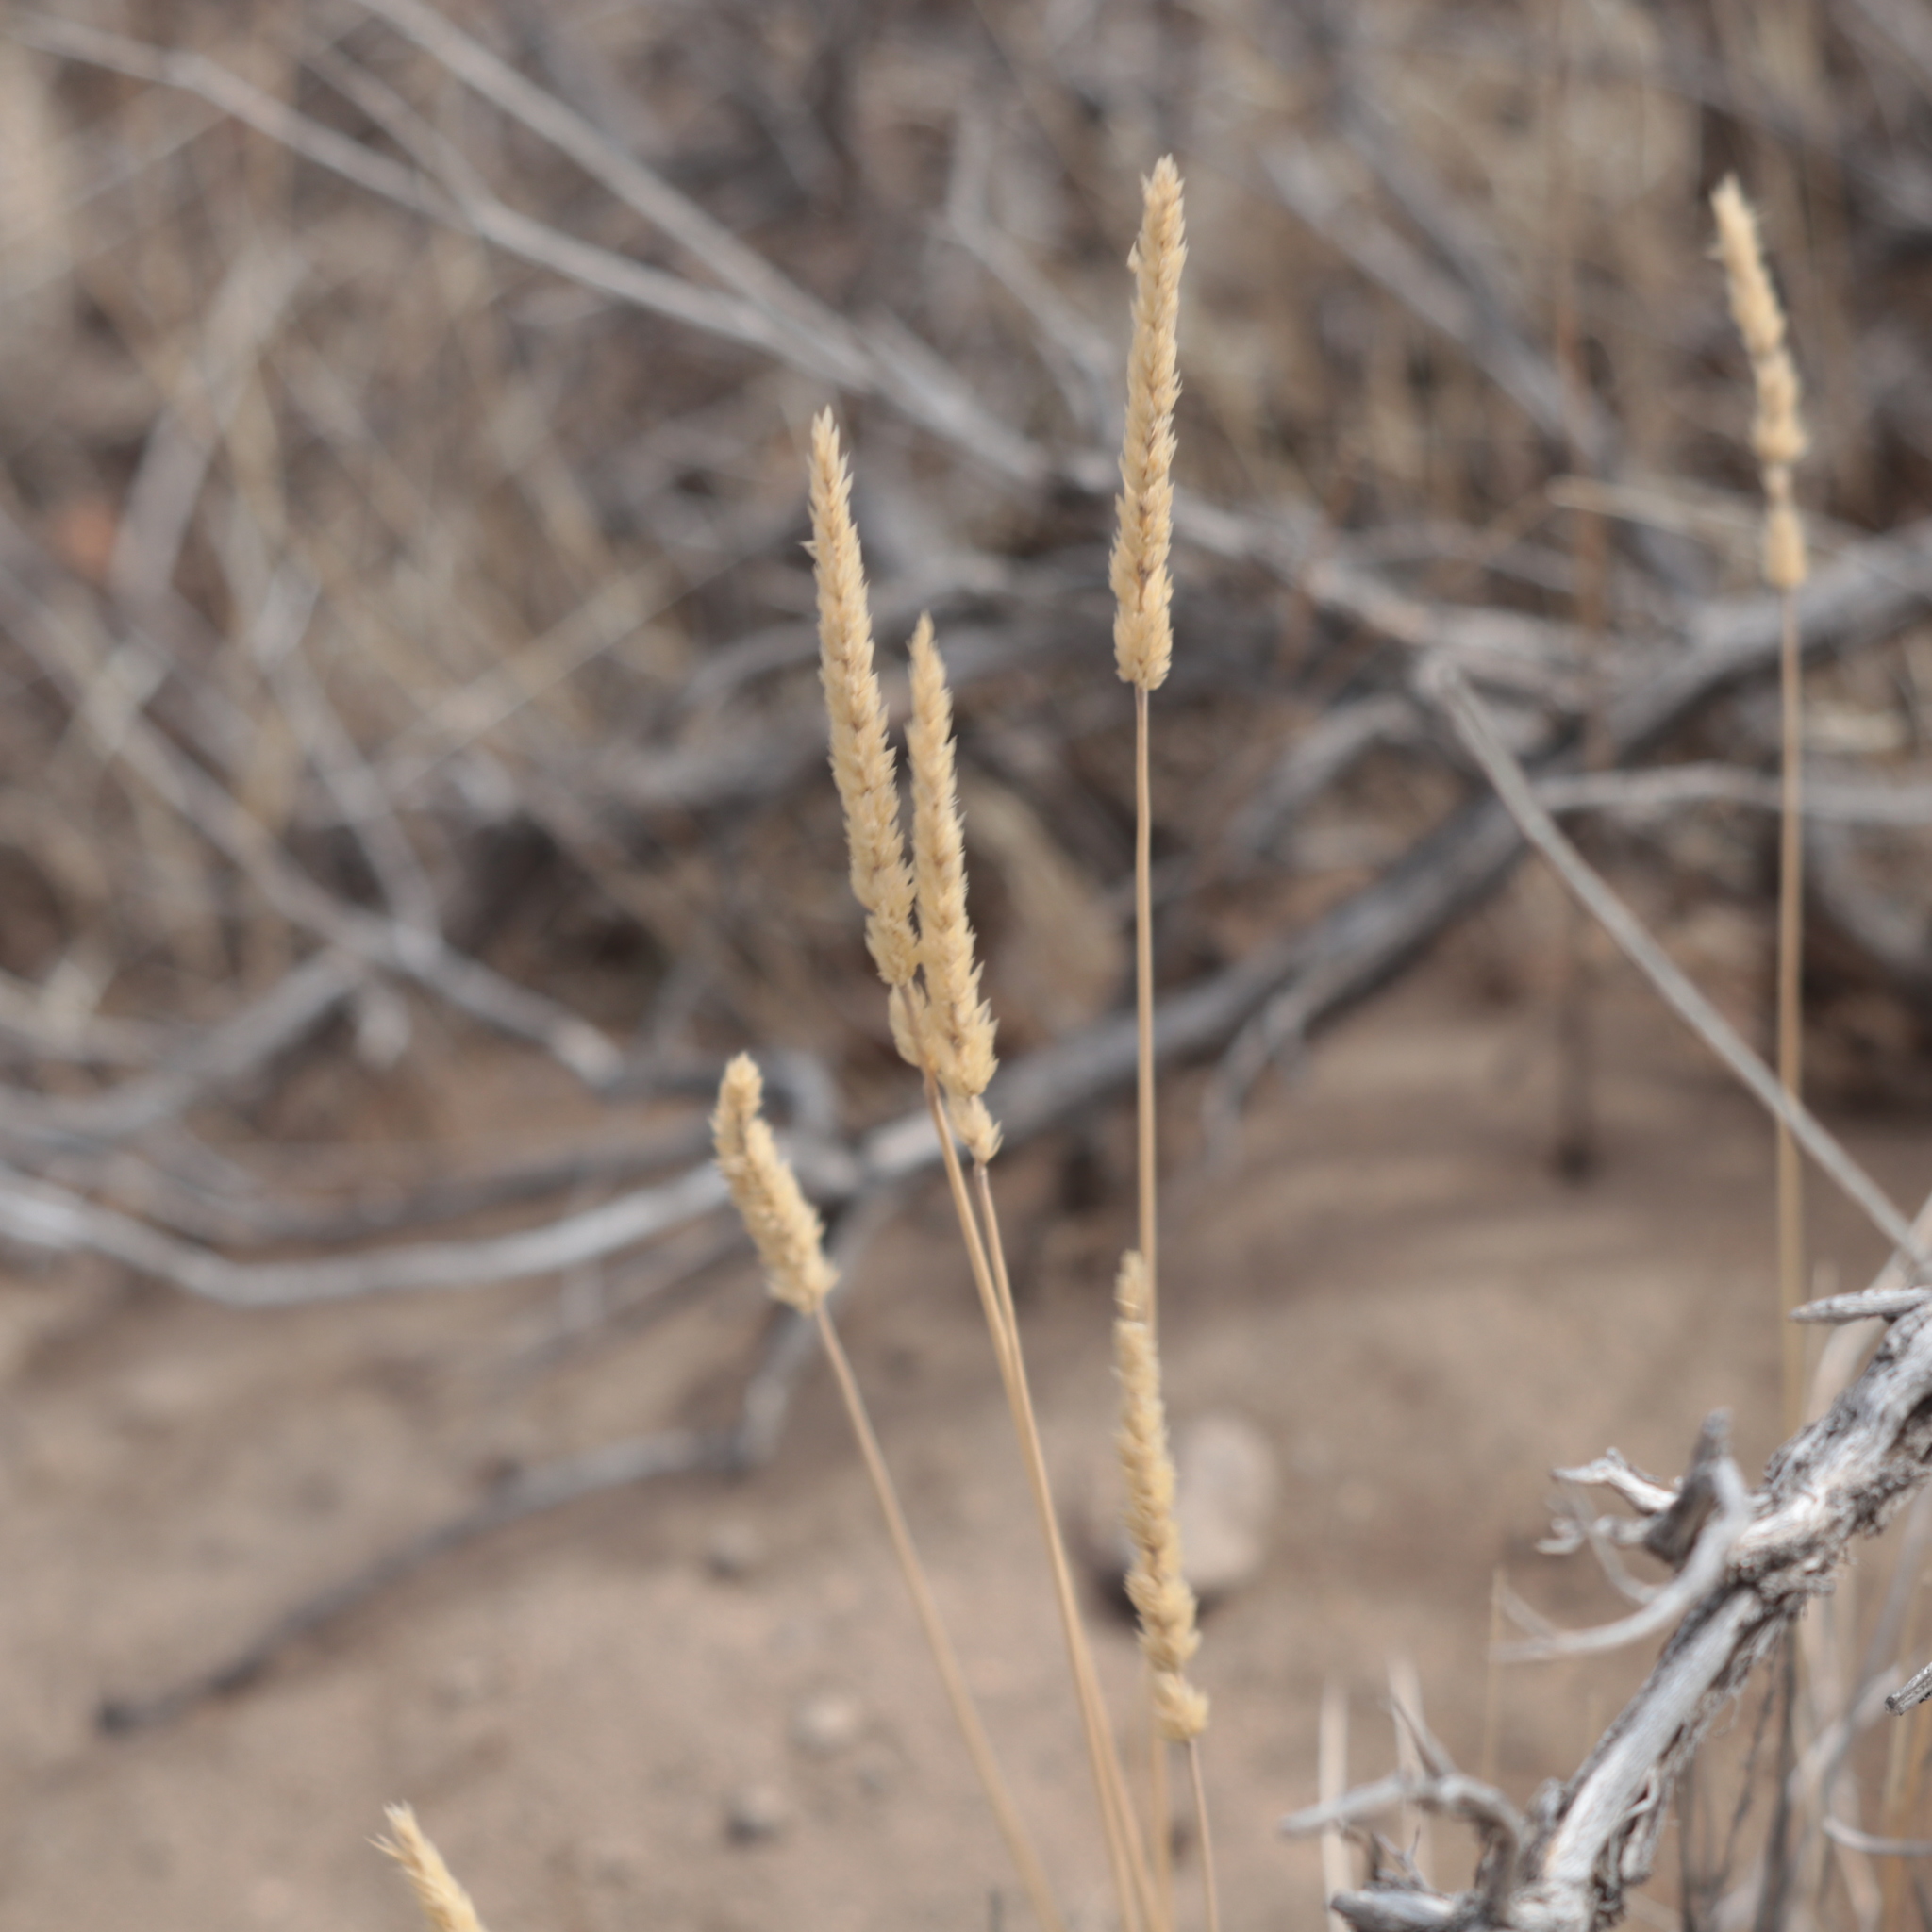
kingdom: Plantae
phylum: Tracheophyta
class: Liliopsida
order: Poales
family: Poaceae
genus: Koeleria
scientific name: Koeleria macrantha
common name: Crested hair-grass
